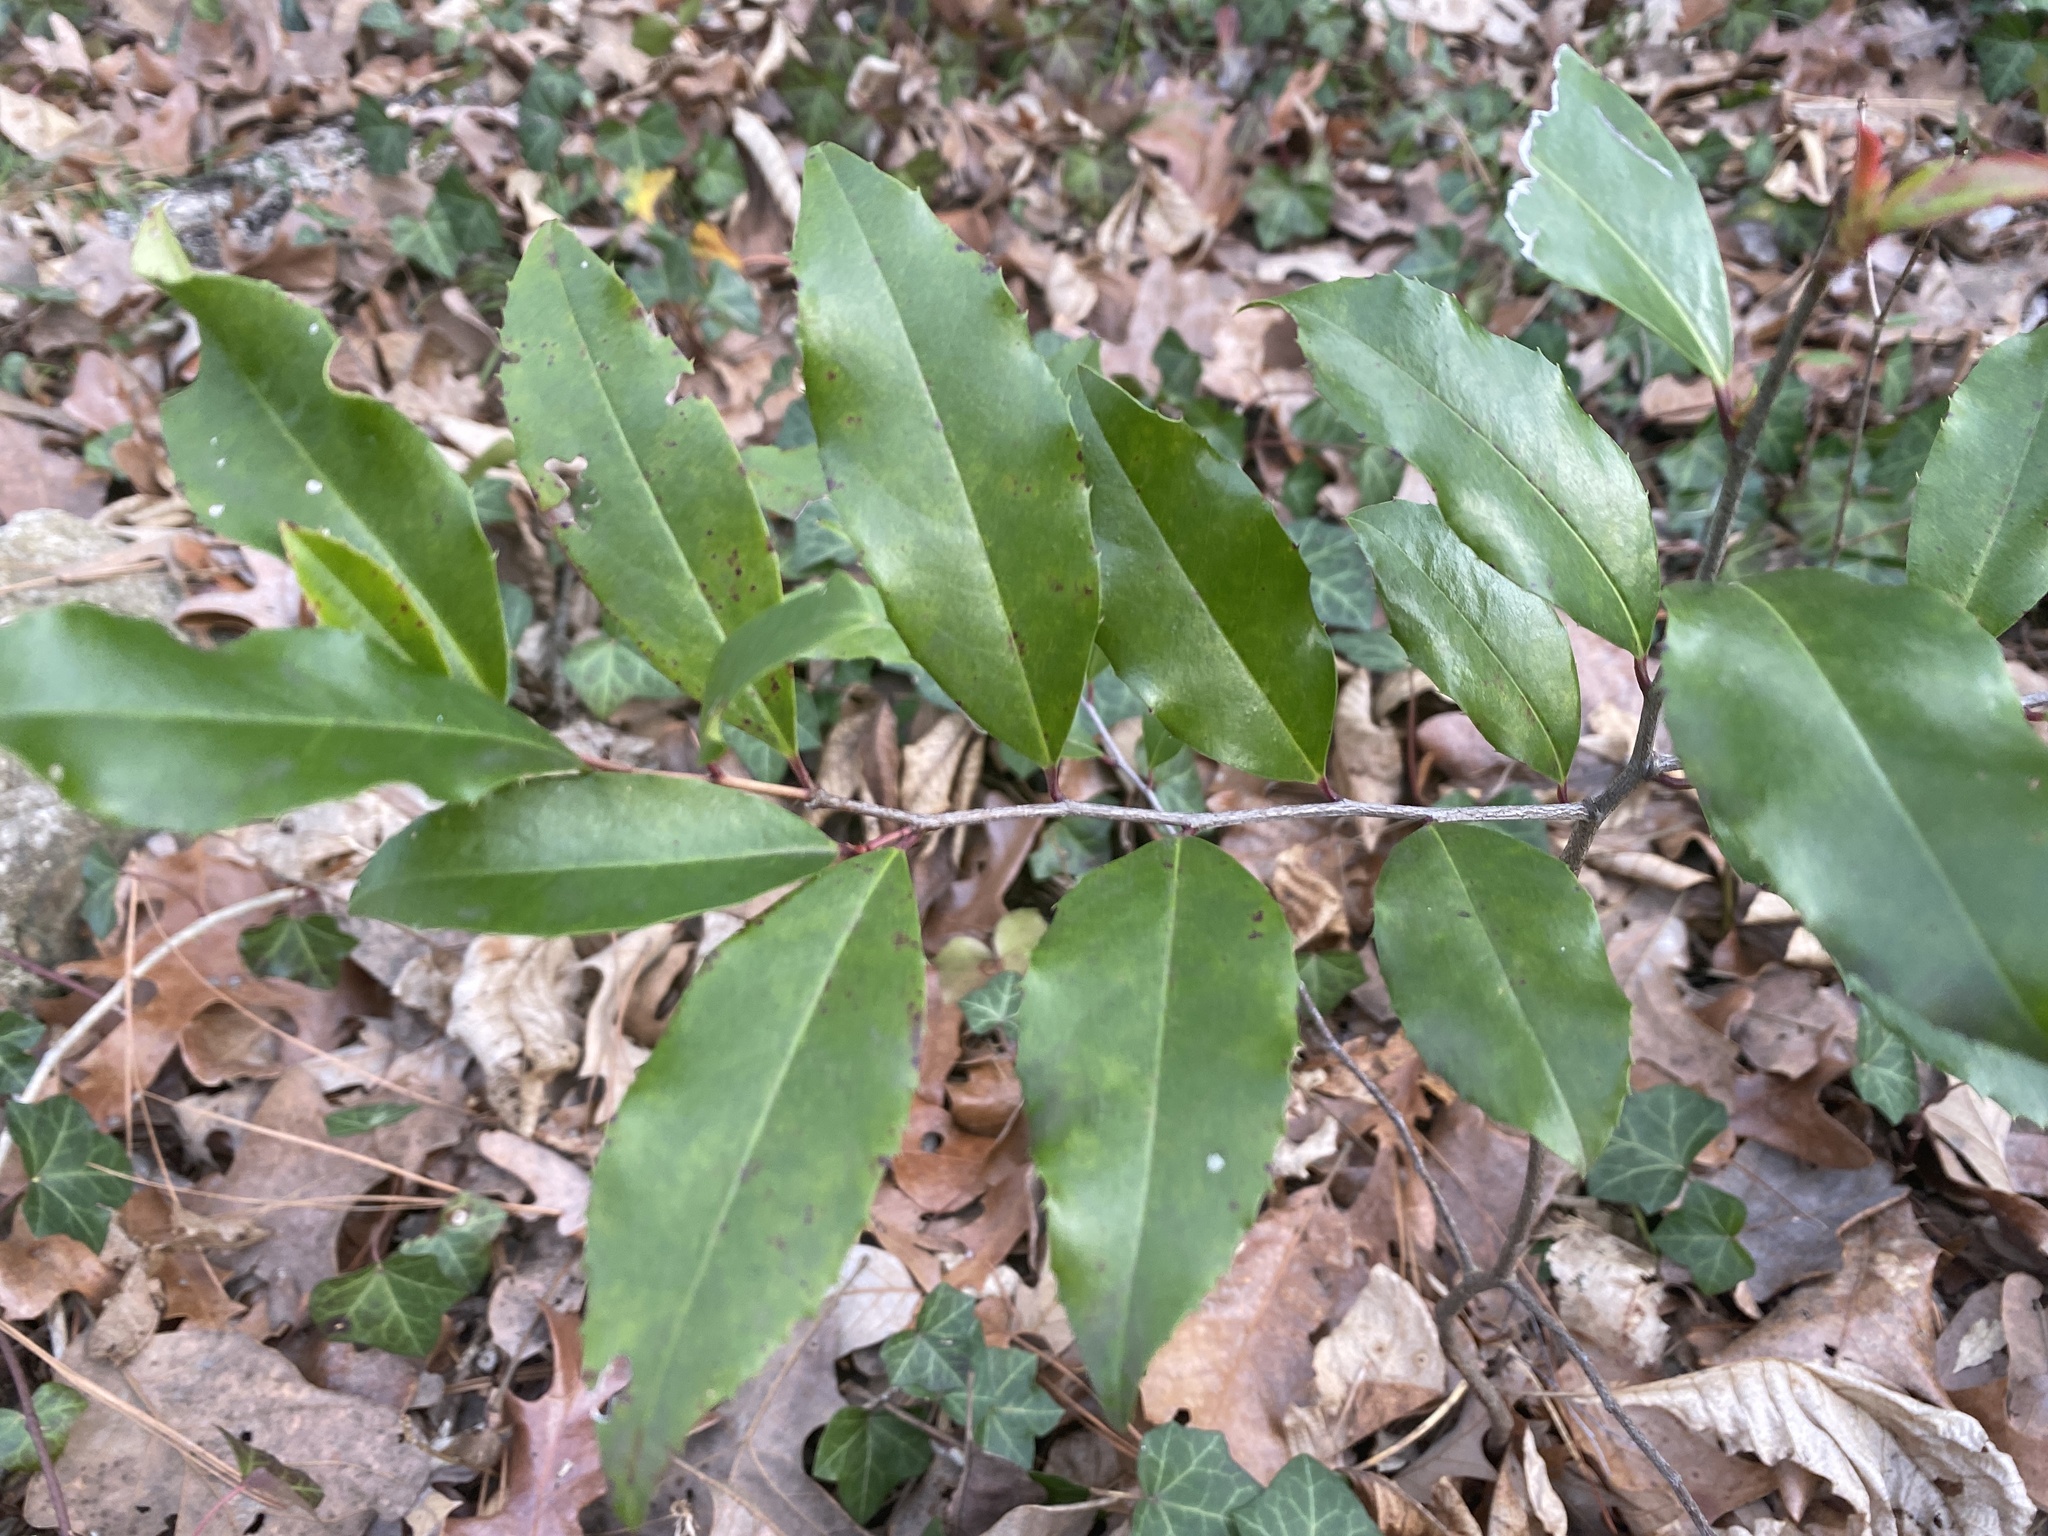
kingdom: Plantae
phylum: Tracheophyta
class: Magnoliopsida
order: Rosales
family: Rosaceae
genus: Prunus
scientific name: Prunus caroliniana
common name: Carolina laurel cherry
